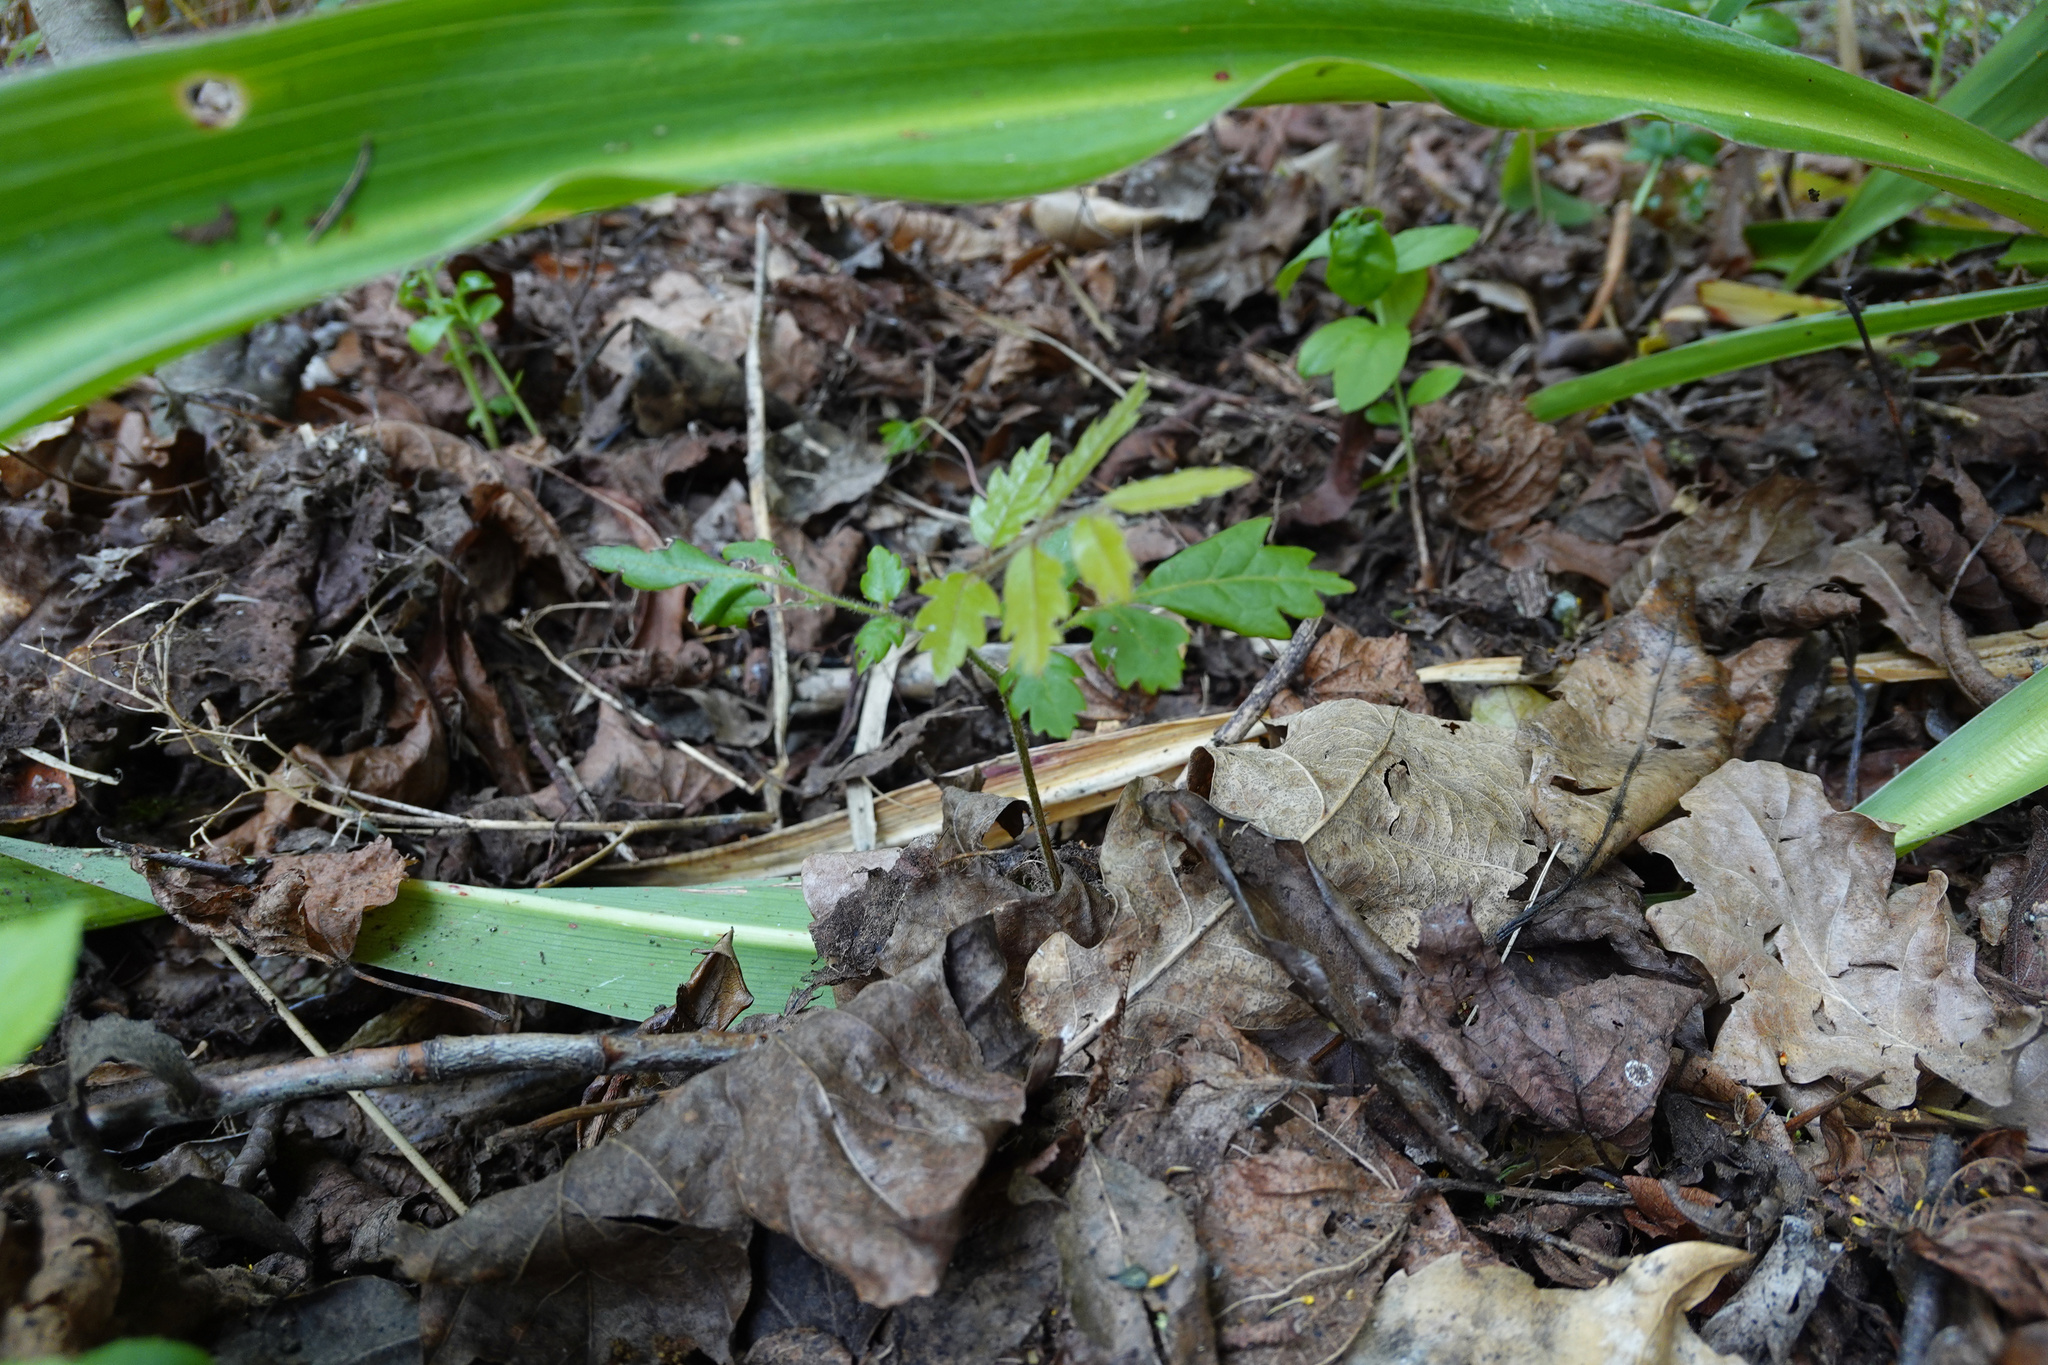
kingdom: Plantae
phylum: Tracheophyta
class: Magnoliopsida
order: Sapindales
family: Sapindaceae
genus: Alectryon
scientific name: Alectryon excelsus
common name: Three kings titoki
